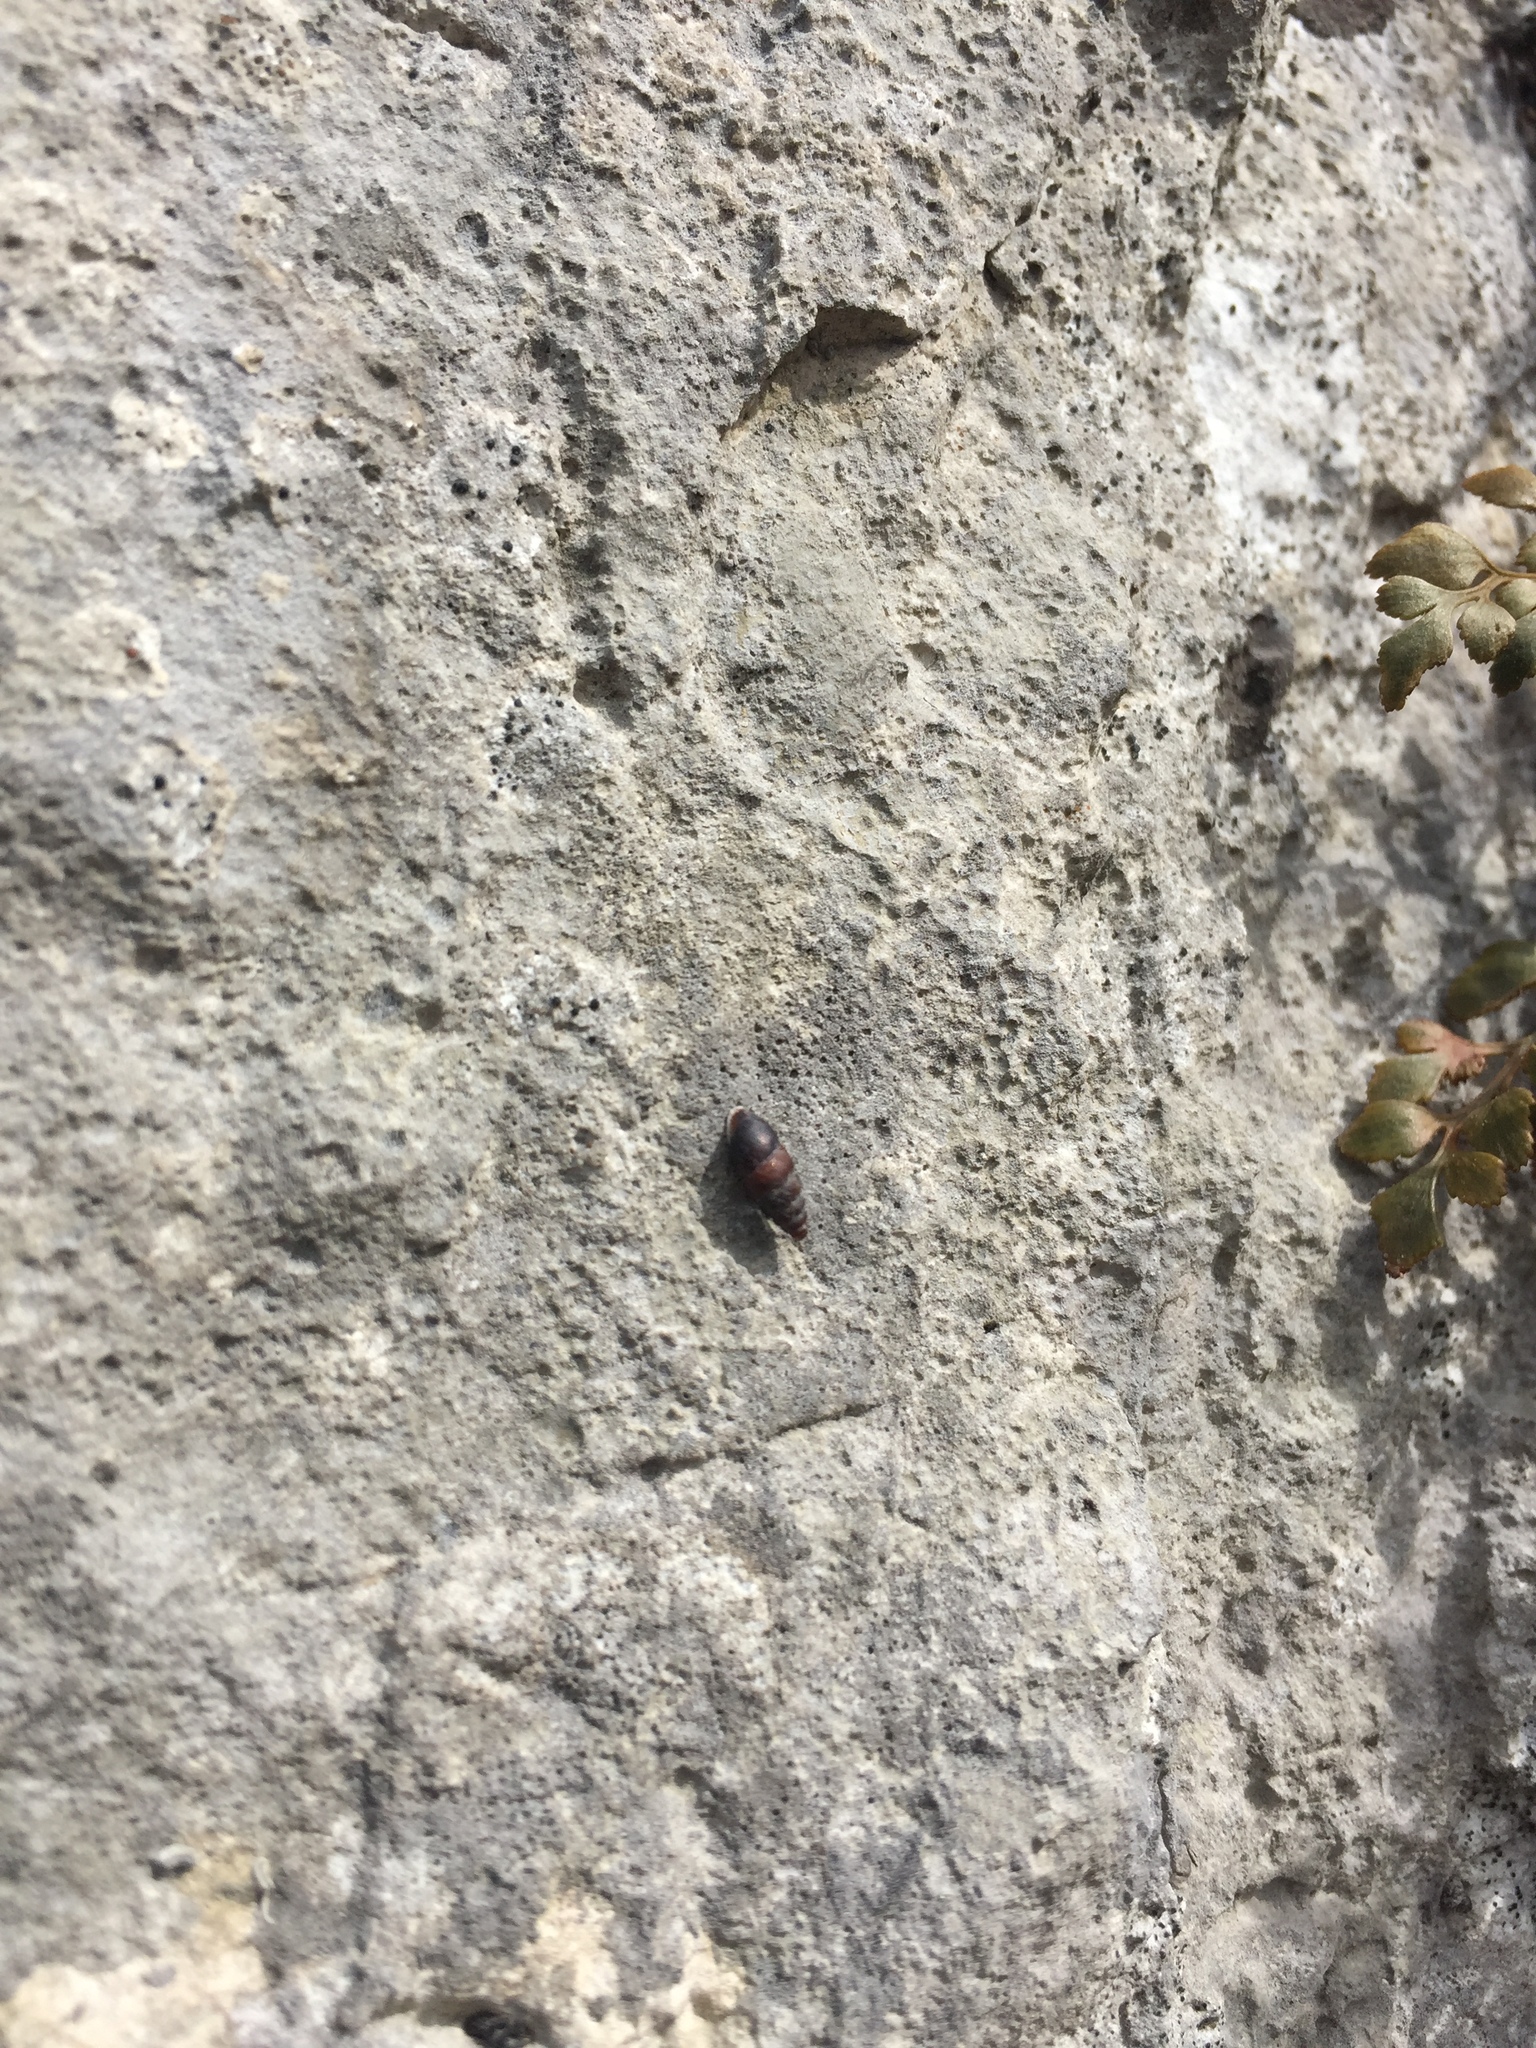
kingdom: Animalia
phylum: Mollusca
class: Gastropoda
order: Stylommatophora
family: Chondrinidae
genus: Chondrina
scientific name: Chondrina avenacea
